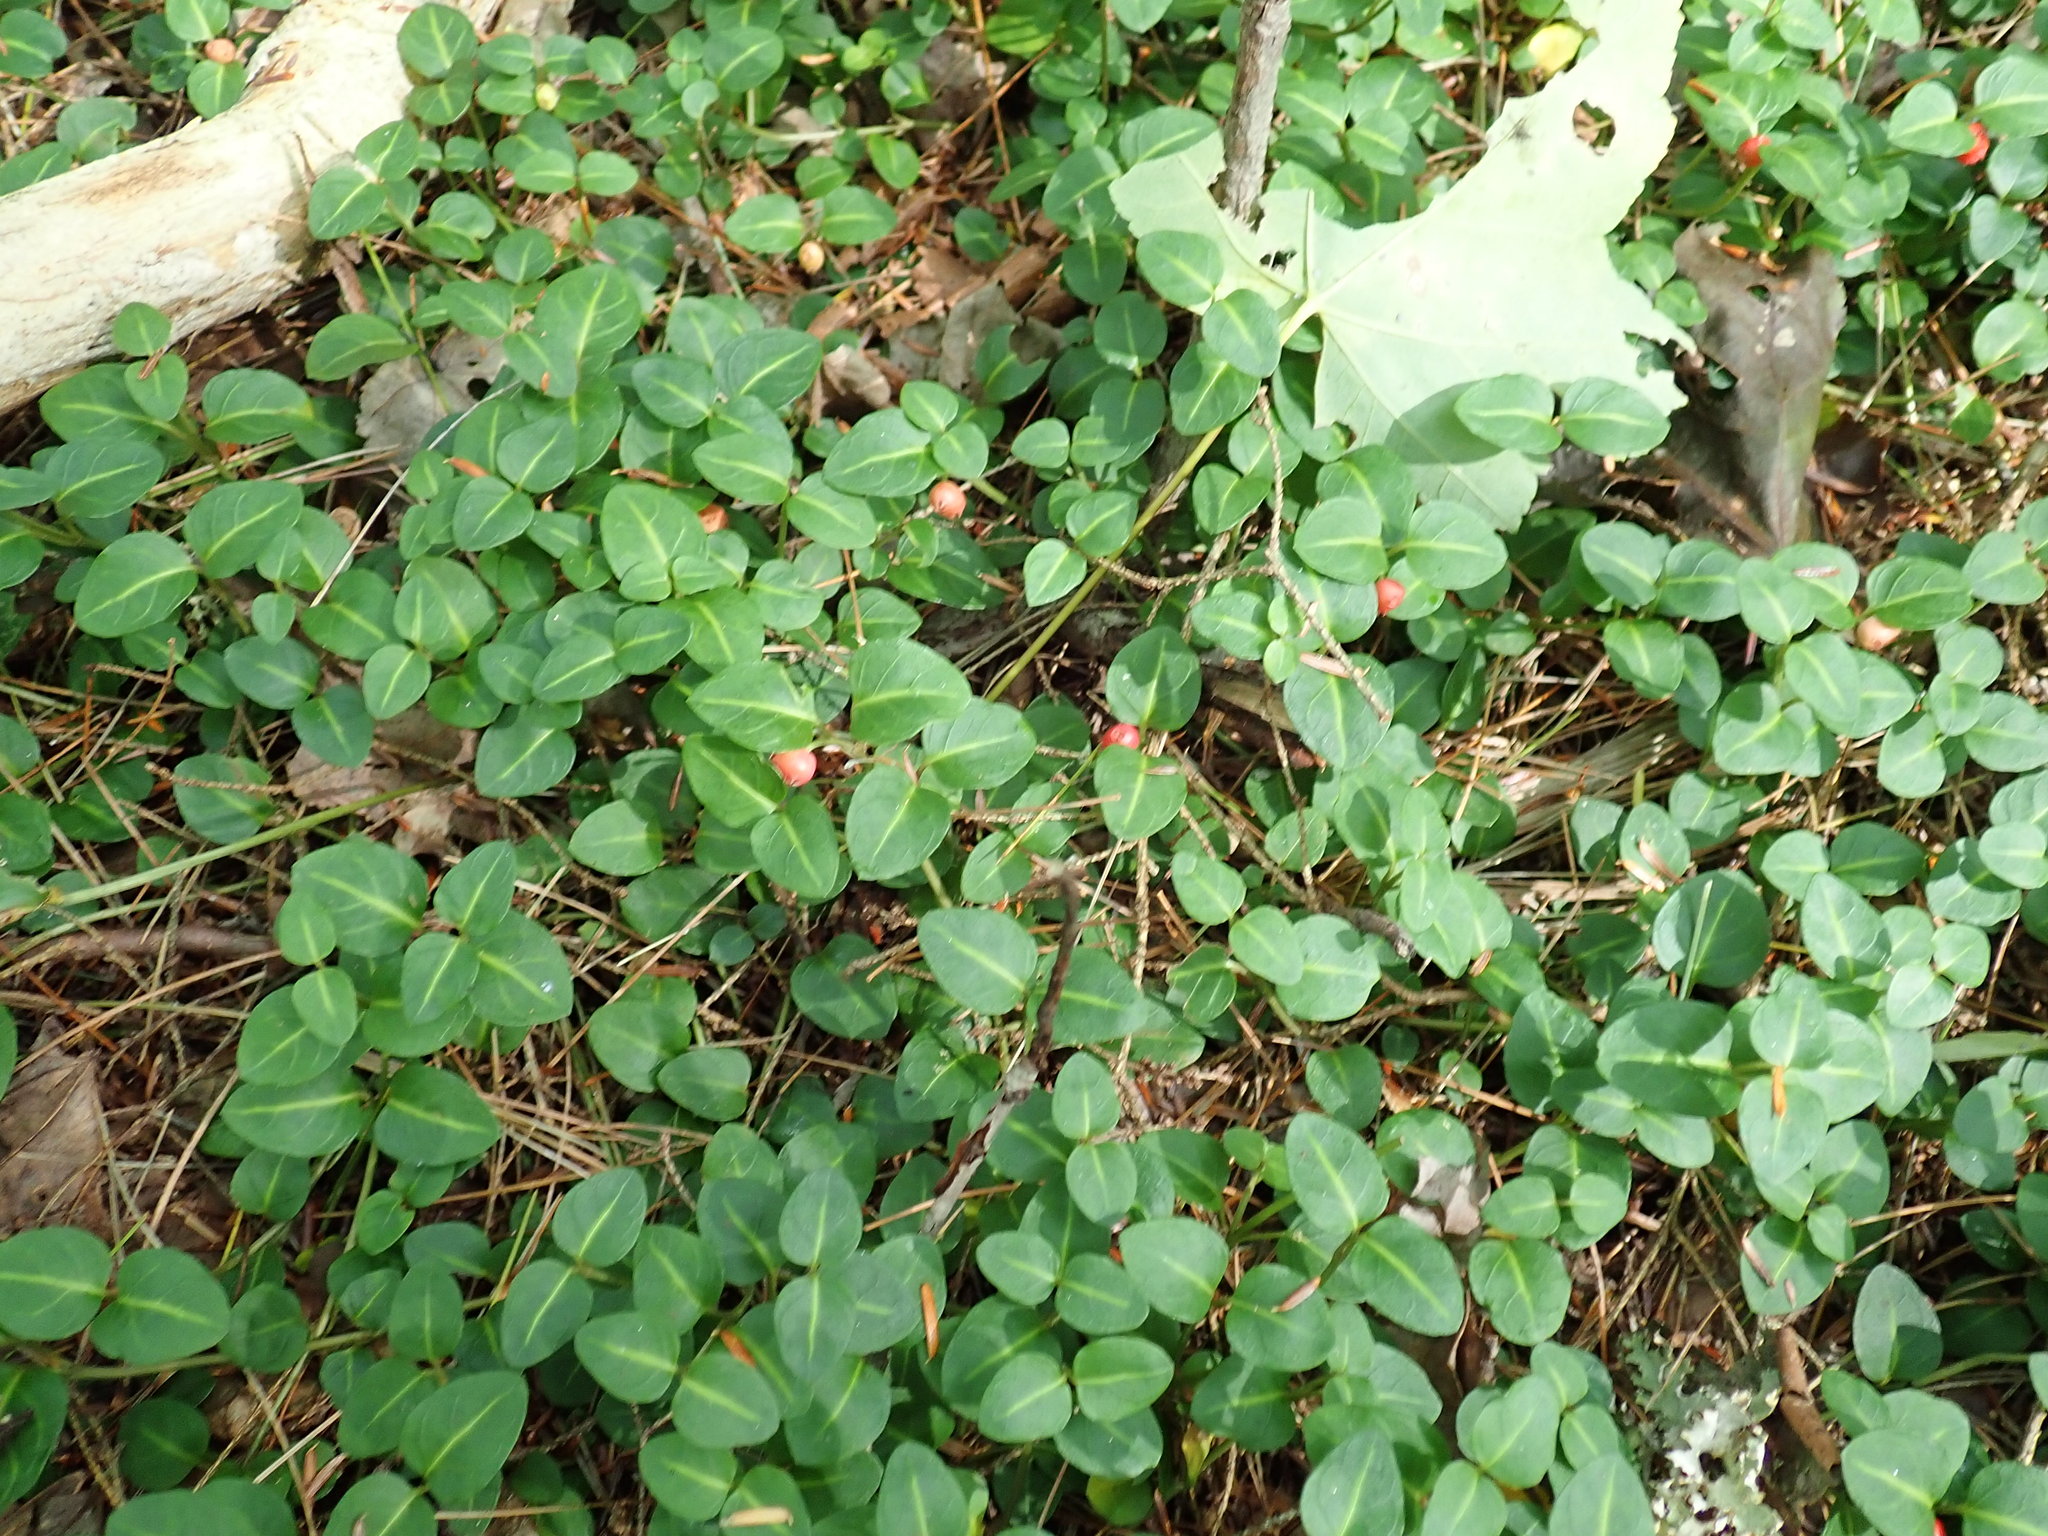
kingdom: Plantae
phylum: Tracheophyta
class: Magnoliopsida
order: Gentianales
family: Rubiaceae
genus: Mitchella
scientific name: Mitchella repens
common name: Partridge-berry
